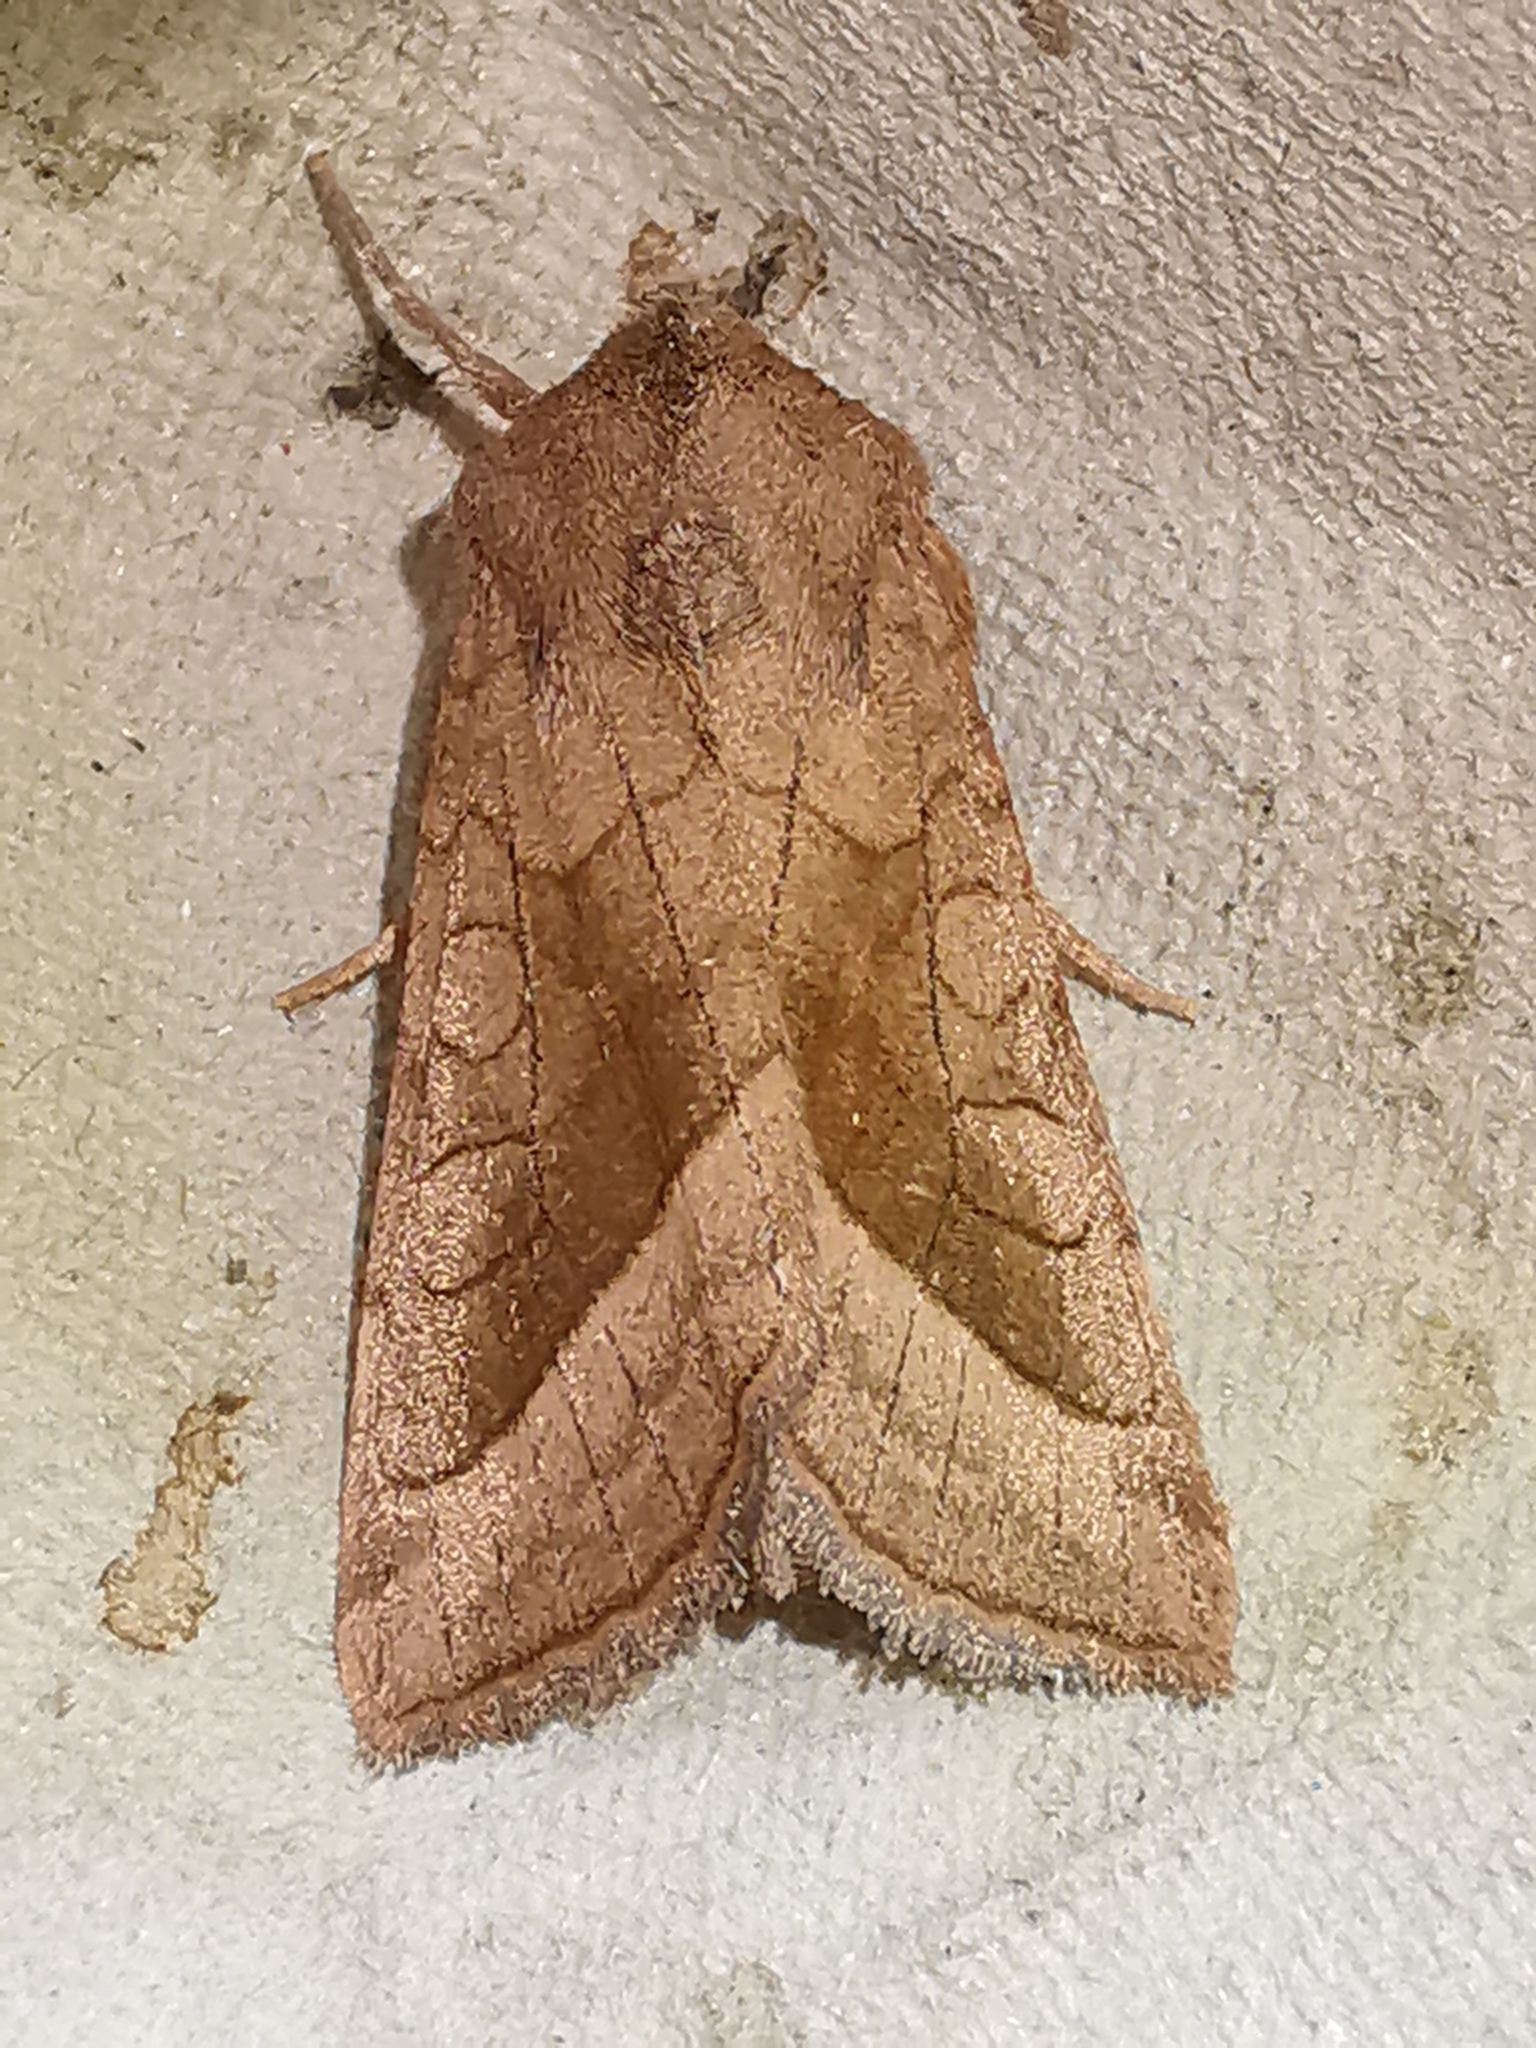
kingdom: Animalia
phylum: Arthropoda
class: Insecta
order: Lepidoptera
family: Noctuidae
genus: Hydraecia
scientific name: Hydraecia micacea
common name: Rosy rustic
